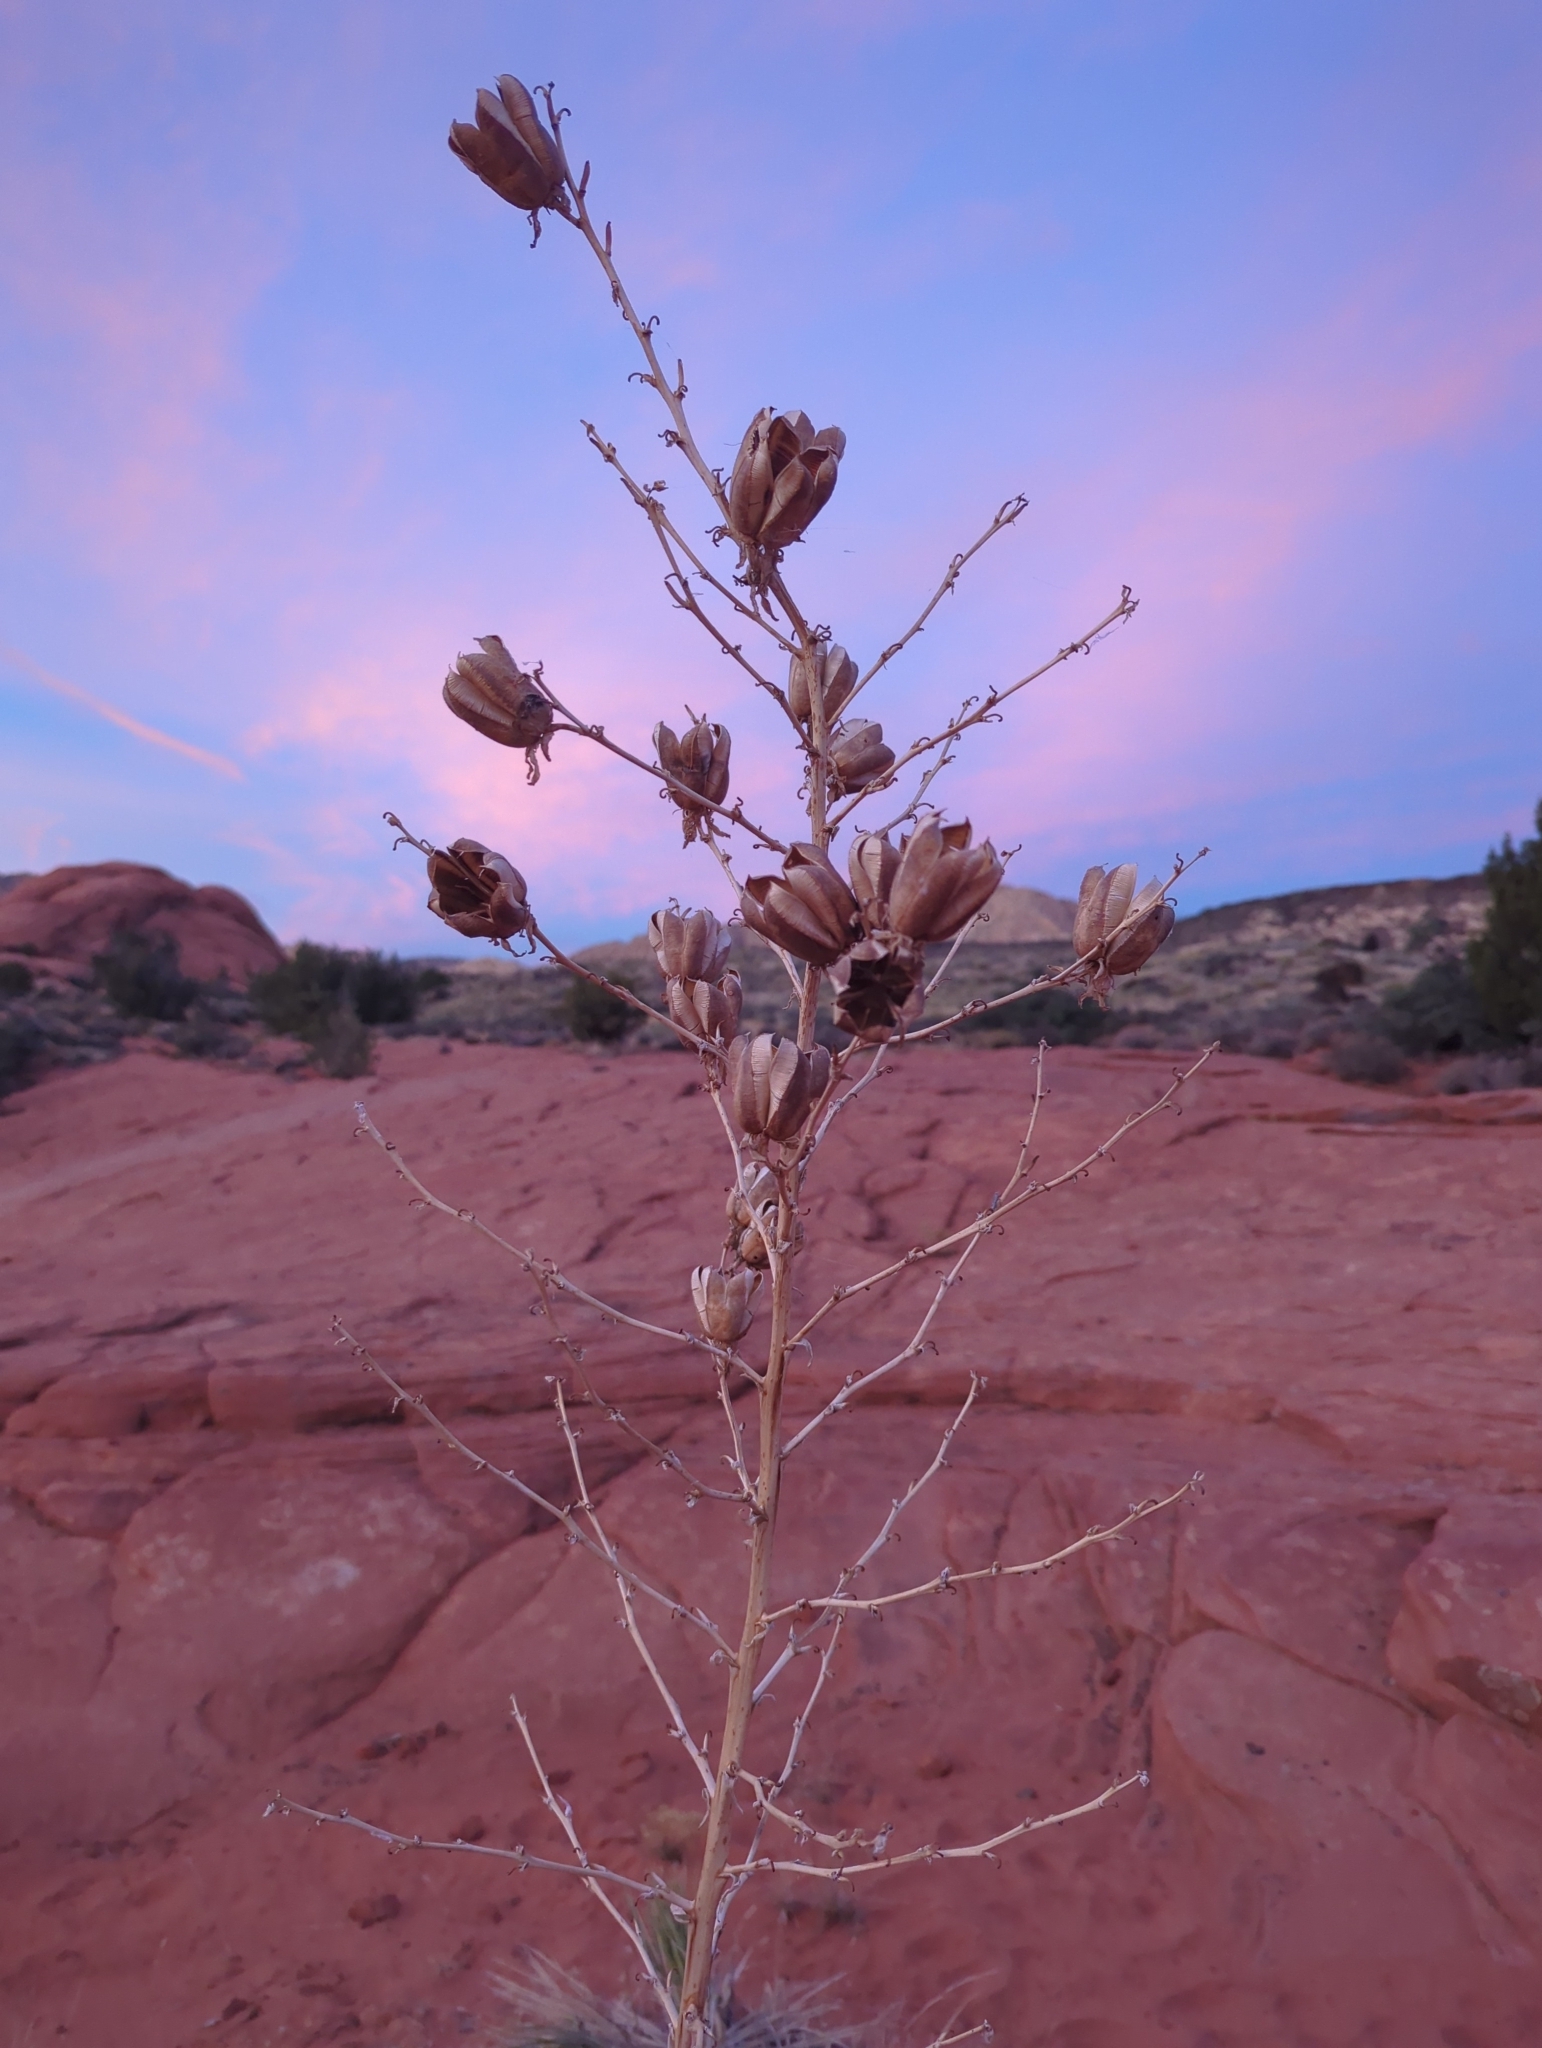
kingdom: Plantae
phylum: Tracheophyta
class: Liliopsida
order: Asparagales
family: Asparagaceae
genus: Yucca
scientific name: Yucca utahensis
